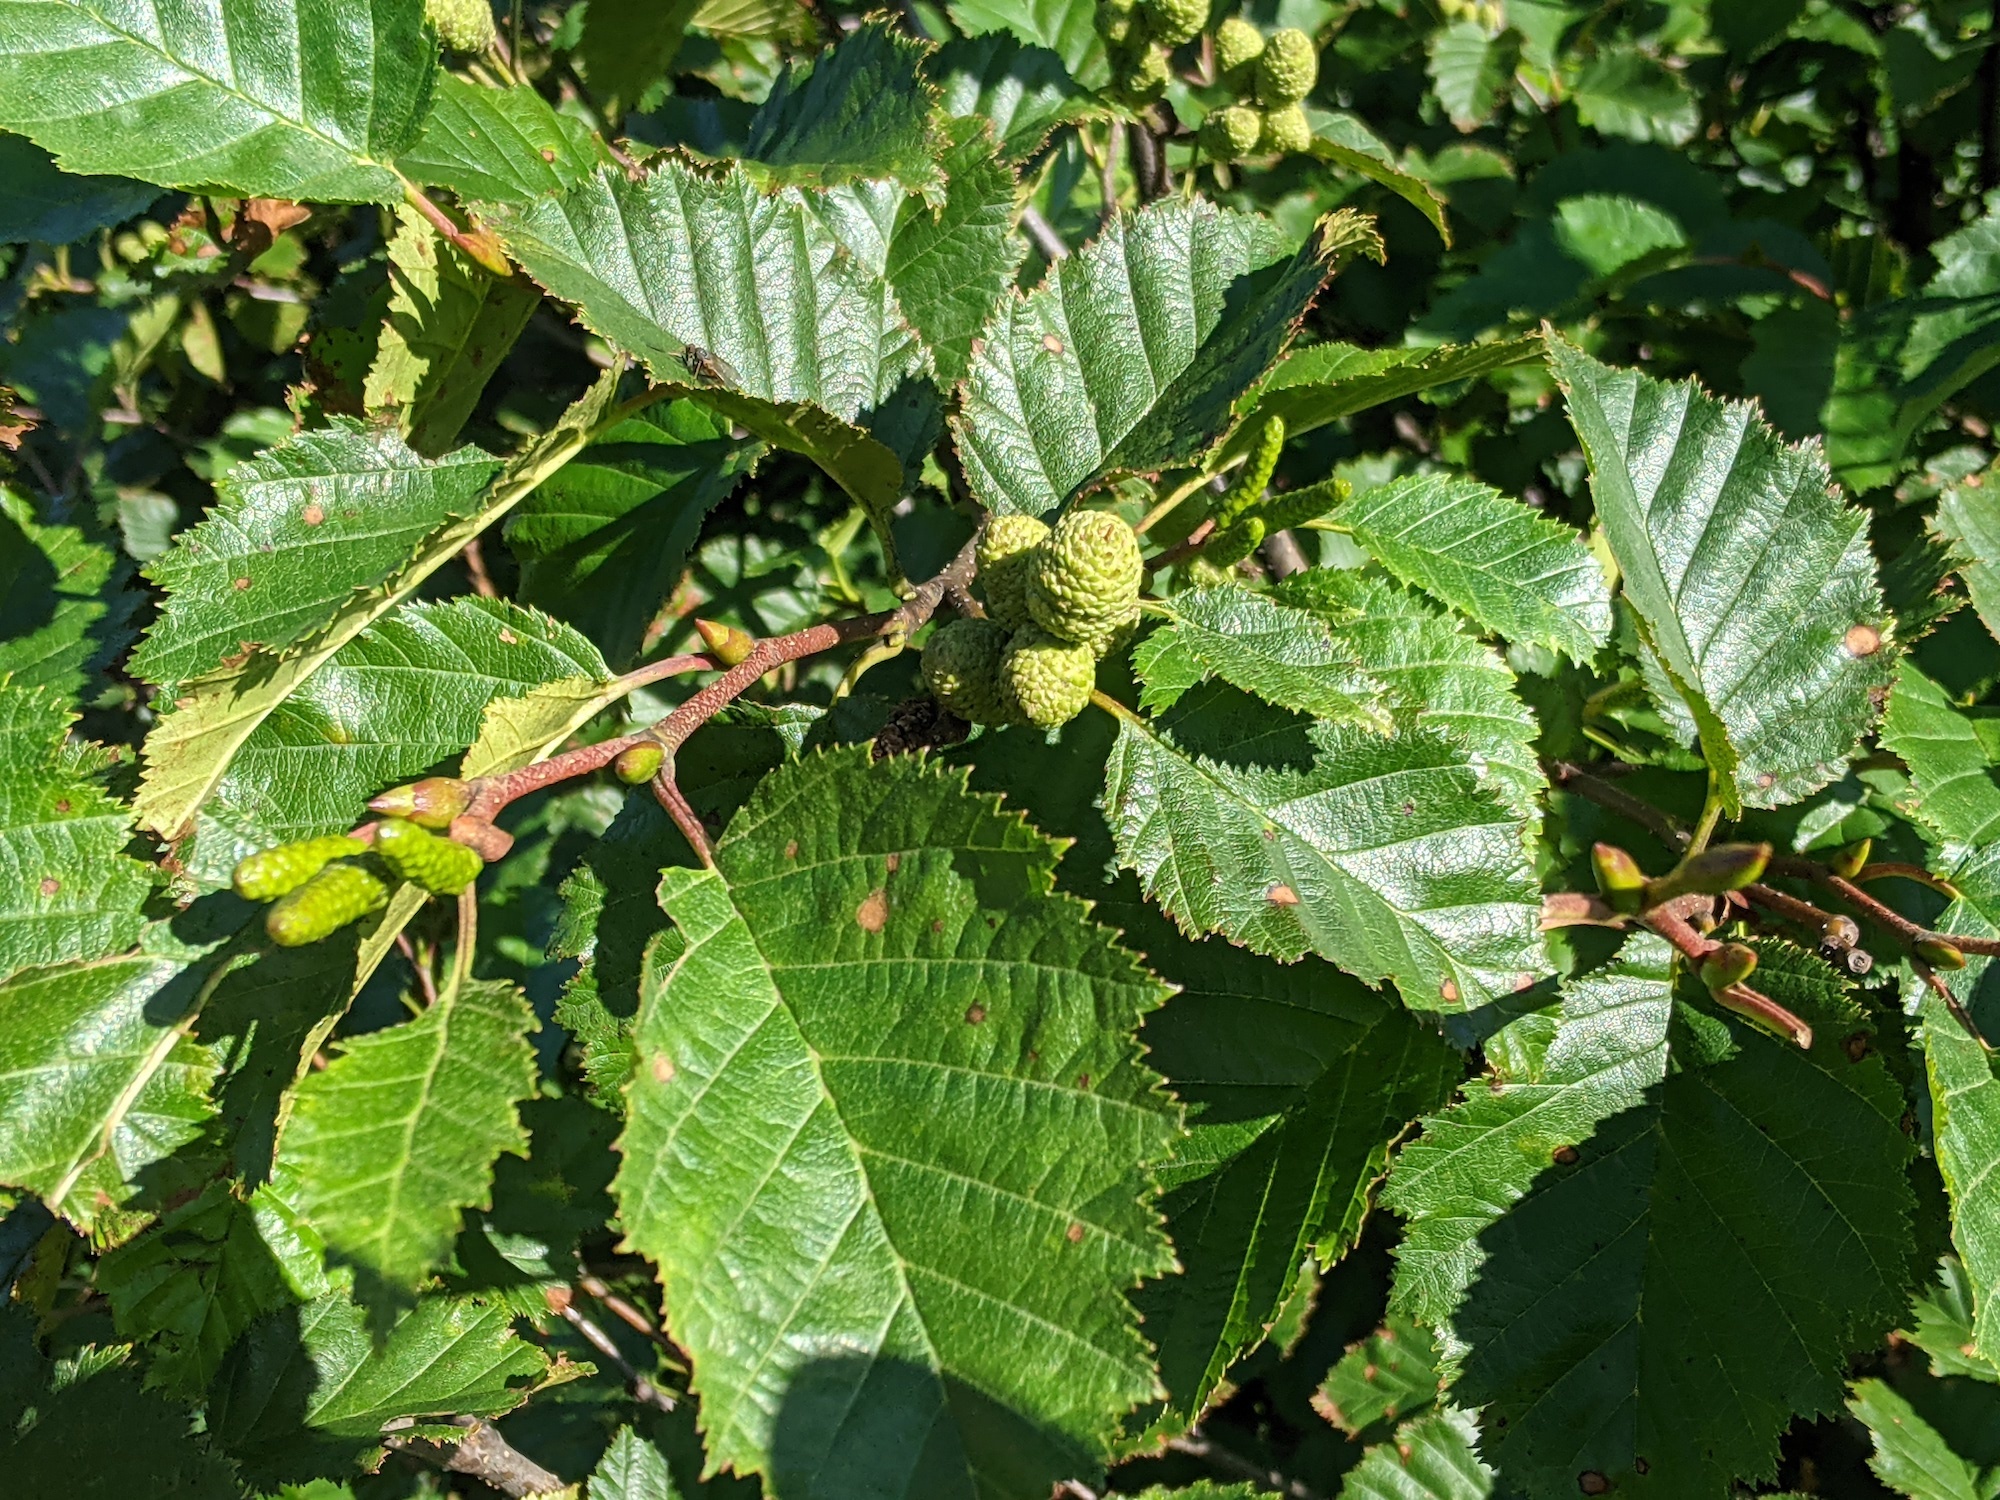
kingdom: Plantae
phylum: Tracheophyta
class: Magnoliopsida
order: Fagales
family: Betulaceae
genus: Alnus
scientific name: Alnus alnobetula
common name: Green alder
